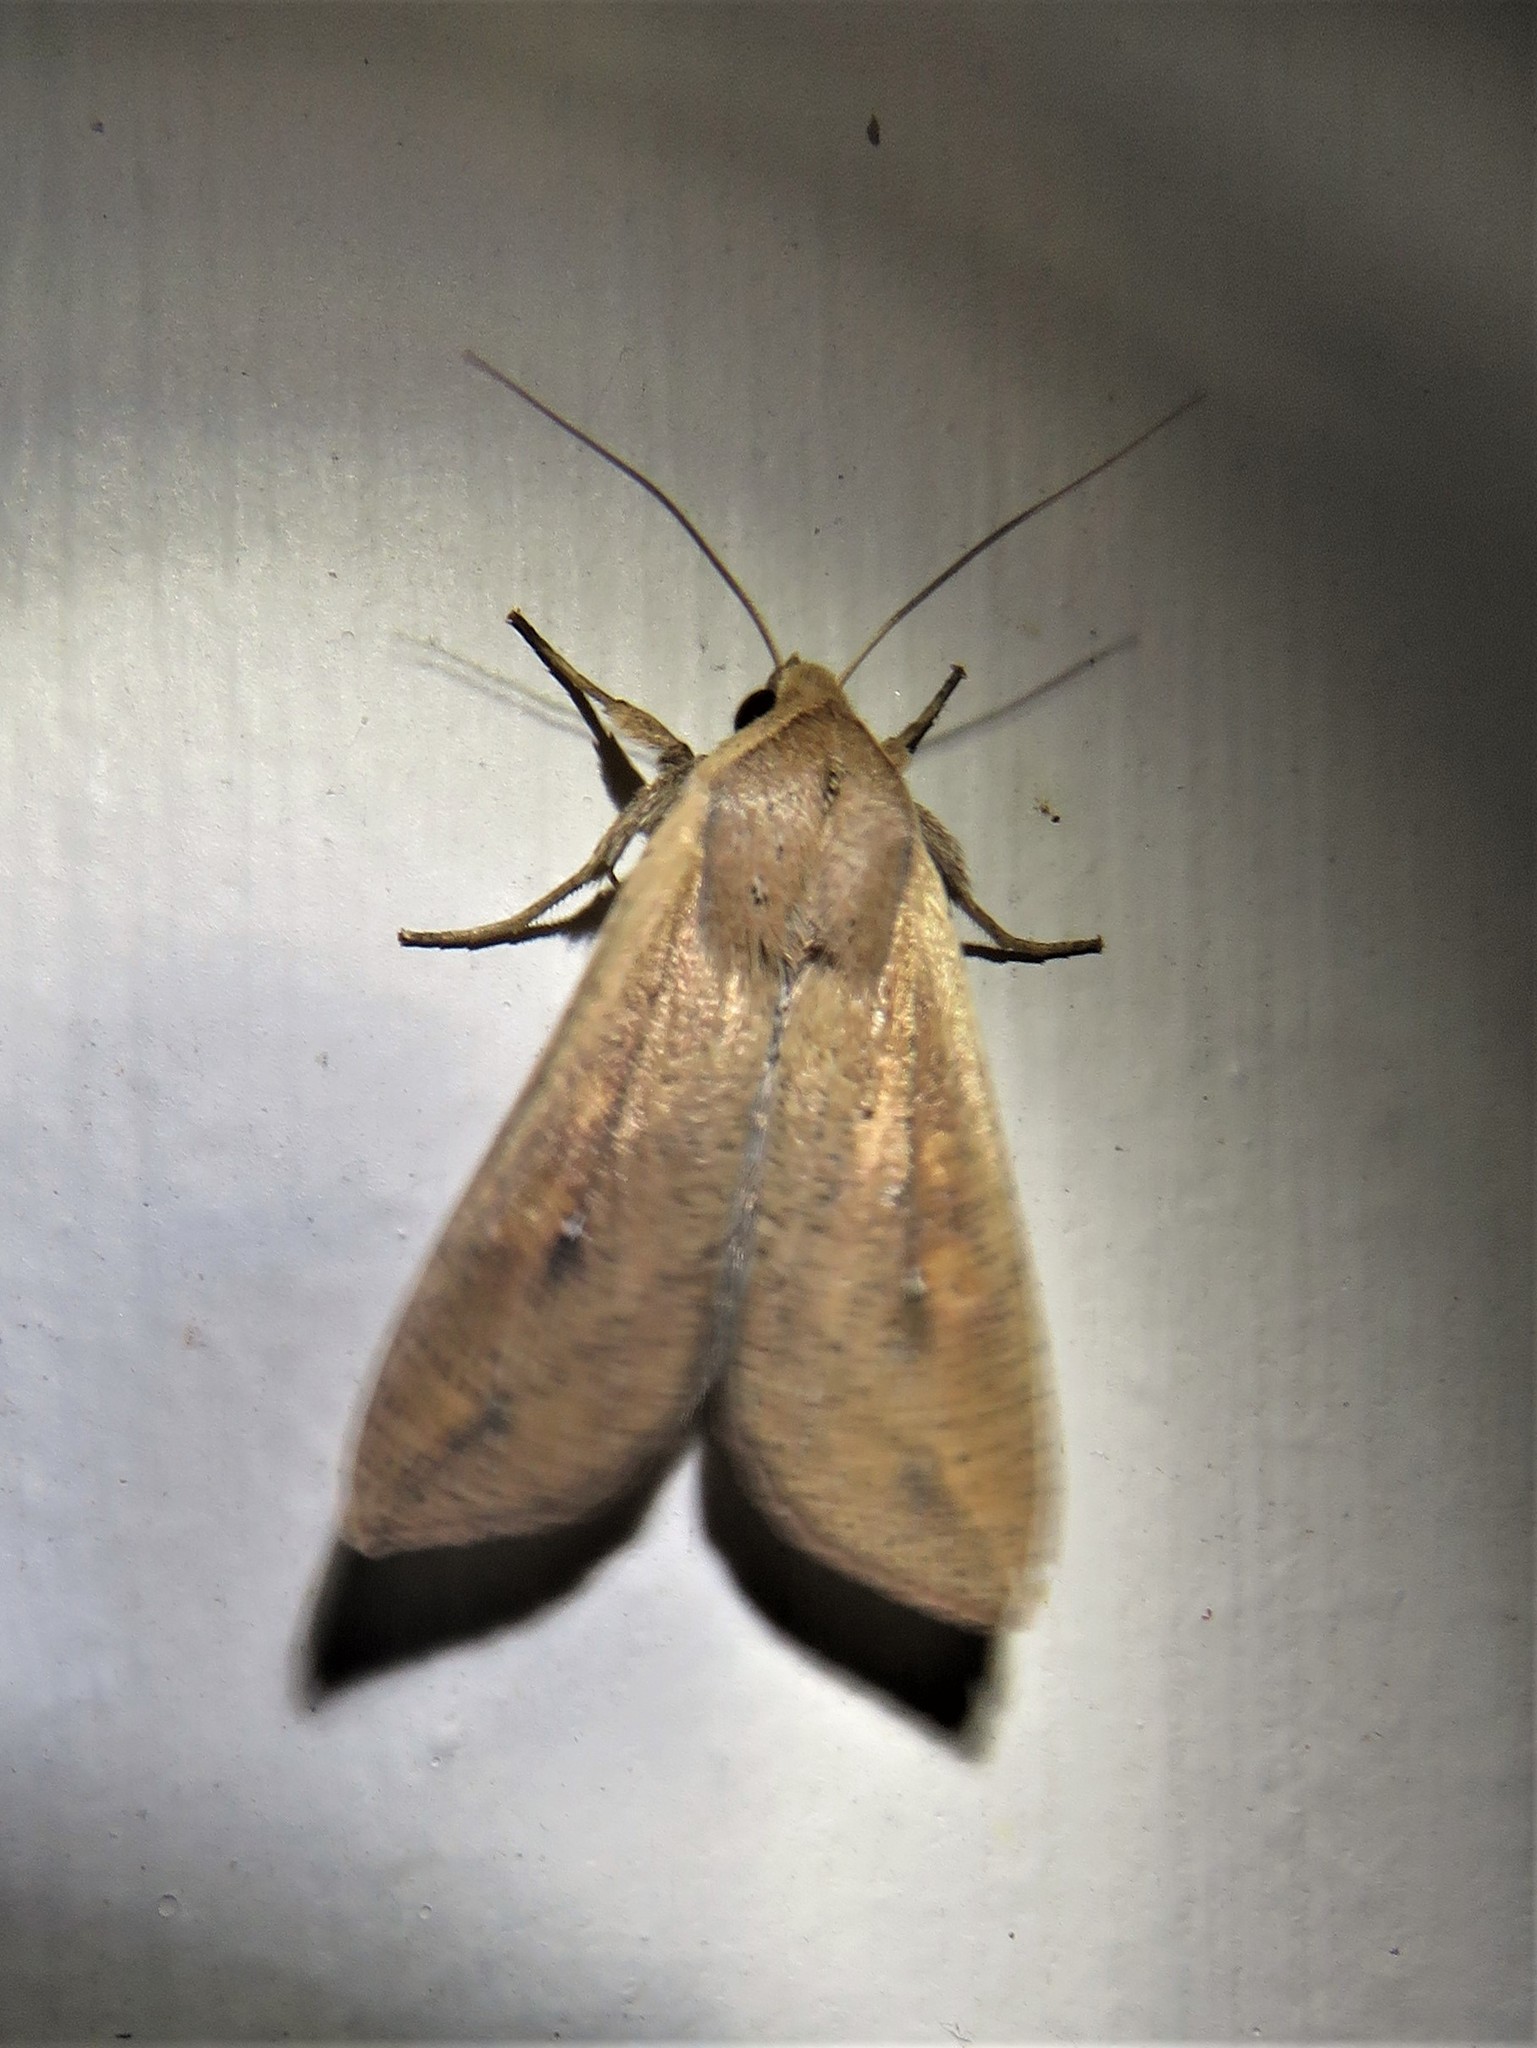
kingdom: Animalia
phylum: Arthropoda
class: Insecta
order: Lepidoptera
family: Noctuidae
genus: Mythimna
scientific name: Mythimna unipuncta
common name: White-speck
